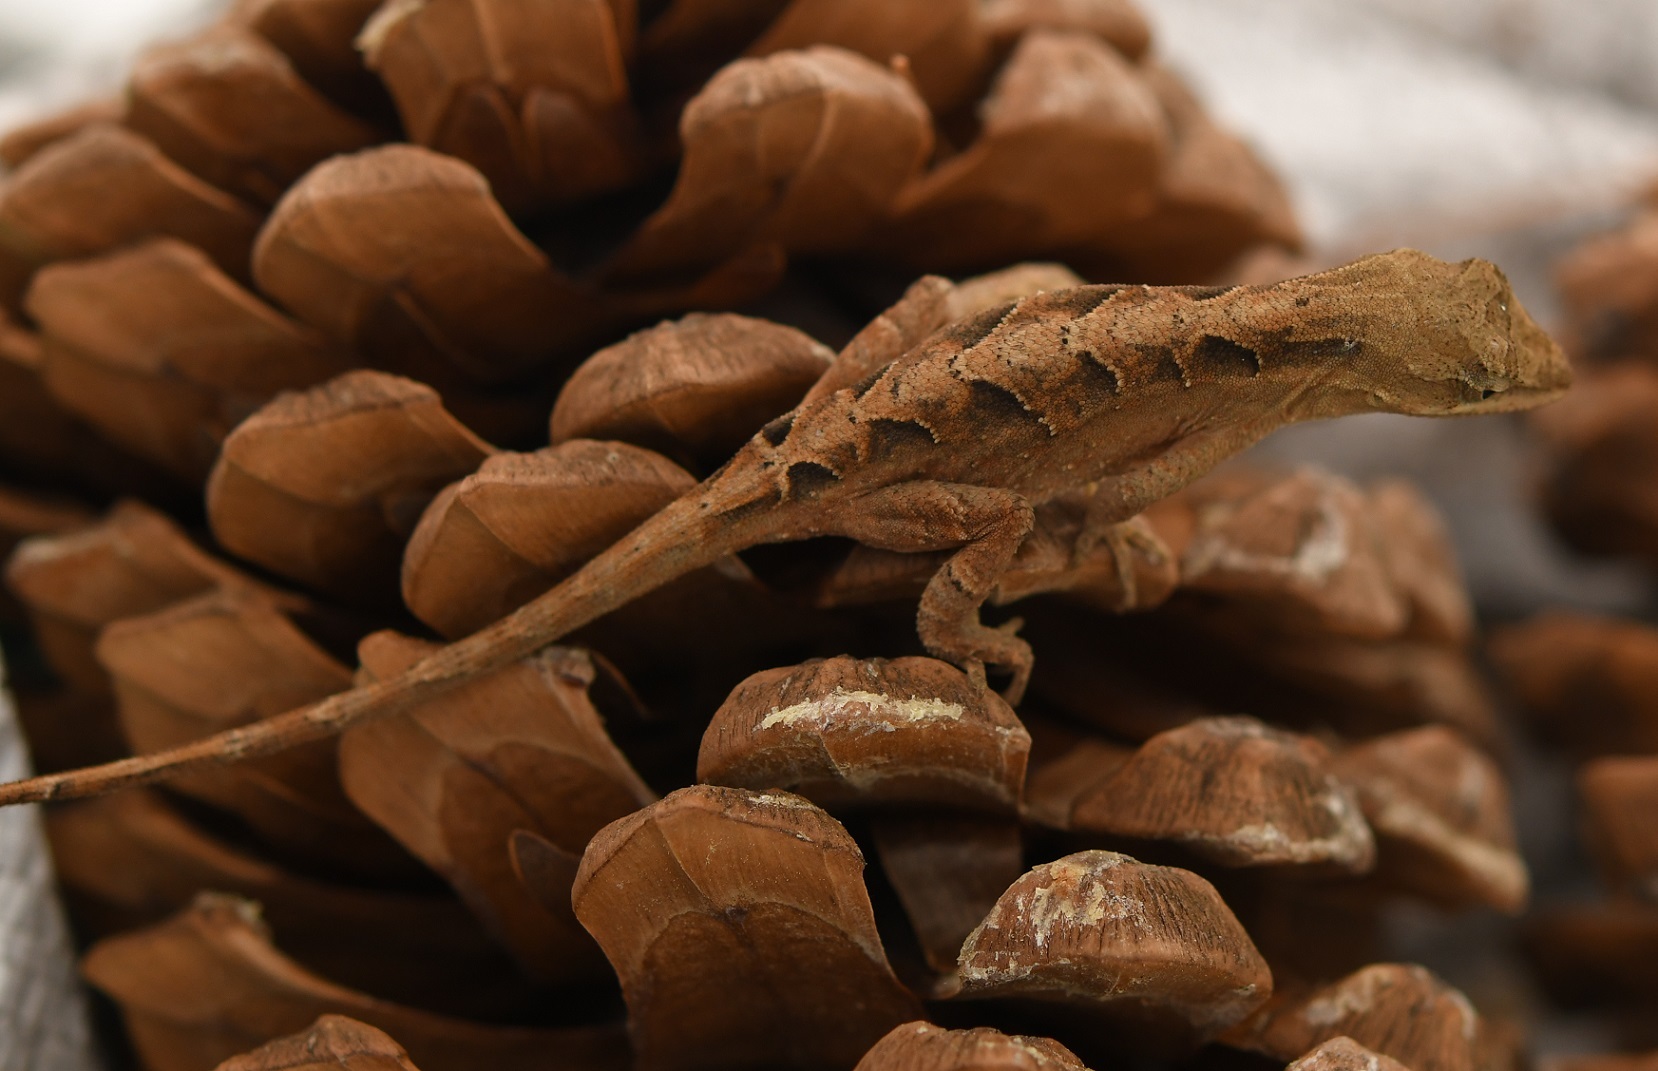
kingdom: Animalia
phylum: Chordata
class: Squamata
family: Dactyloidae
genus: Anolis
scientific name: Anolis anisolepis
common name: Chiapas ornate anole
